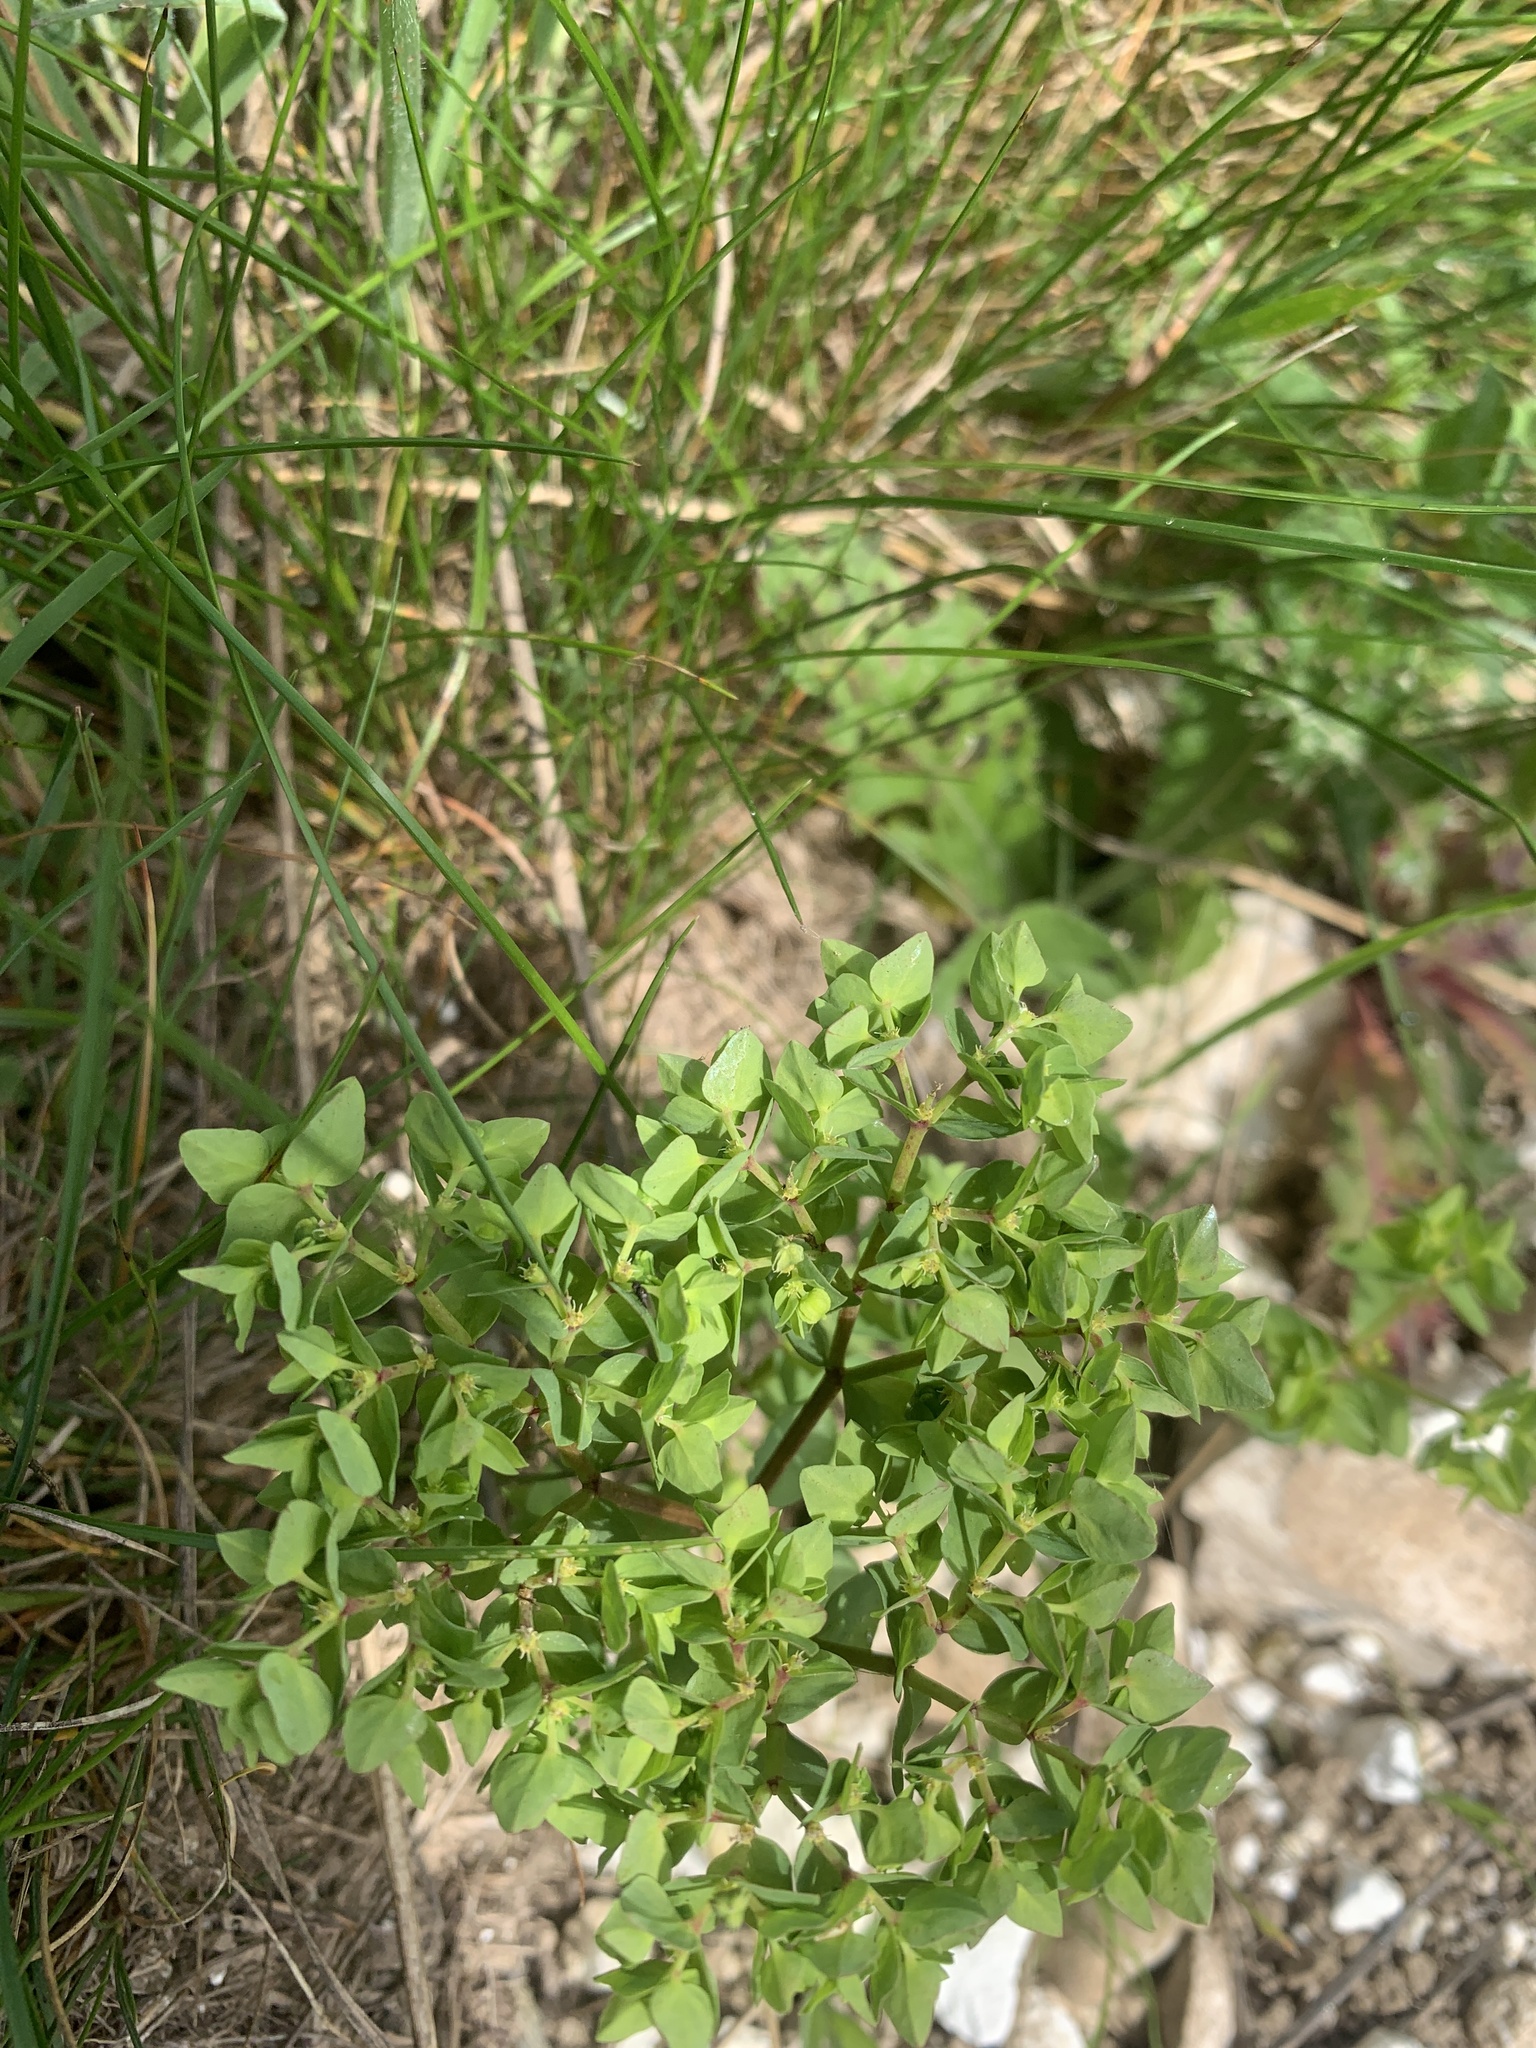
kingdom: Plantae
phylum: Tracheophyta
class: Magnoliopsida
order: Malpighiales
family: Euphorbiaceae
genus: Euphorbia
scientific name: Euphorbia peplus
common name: Petty spurge
